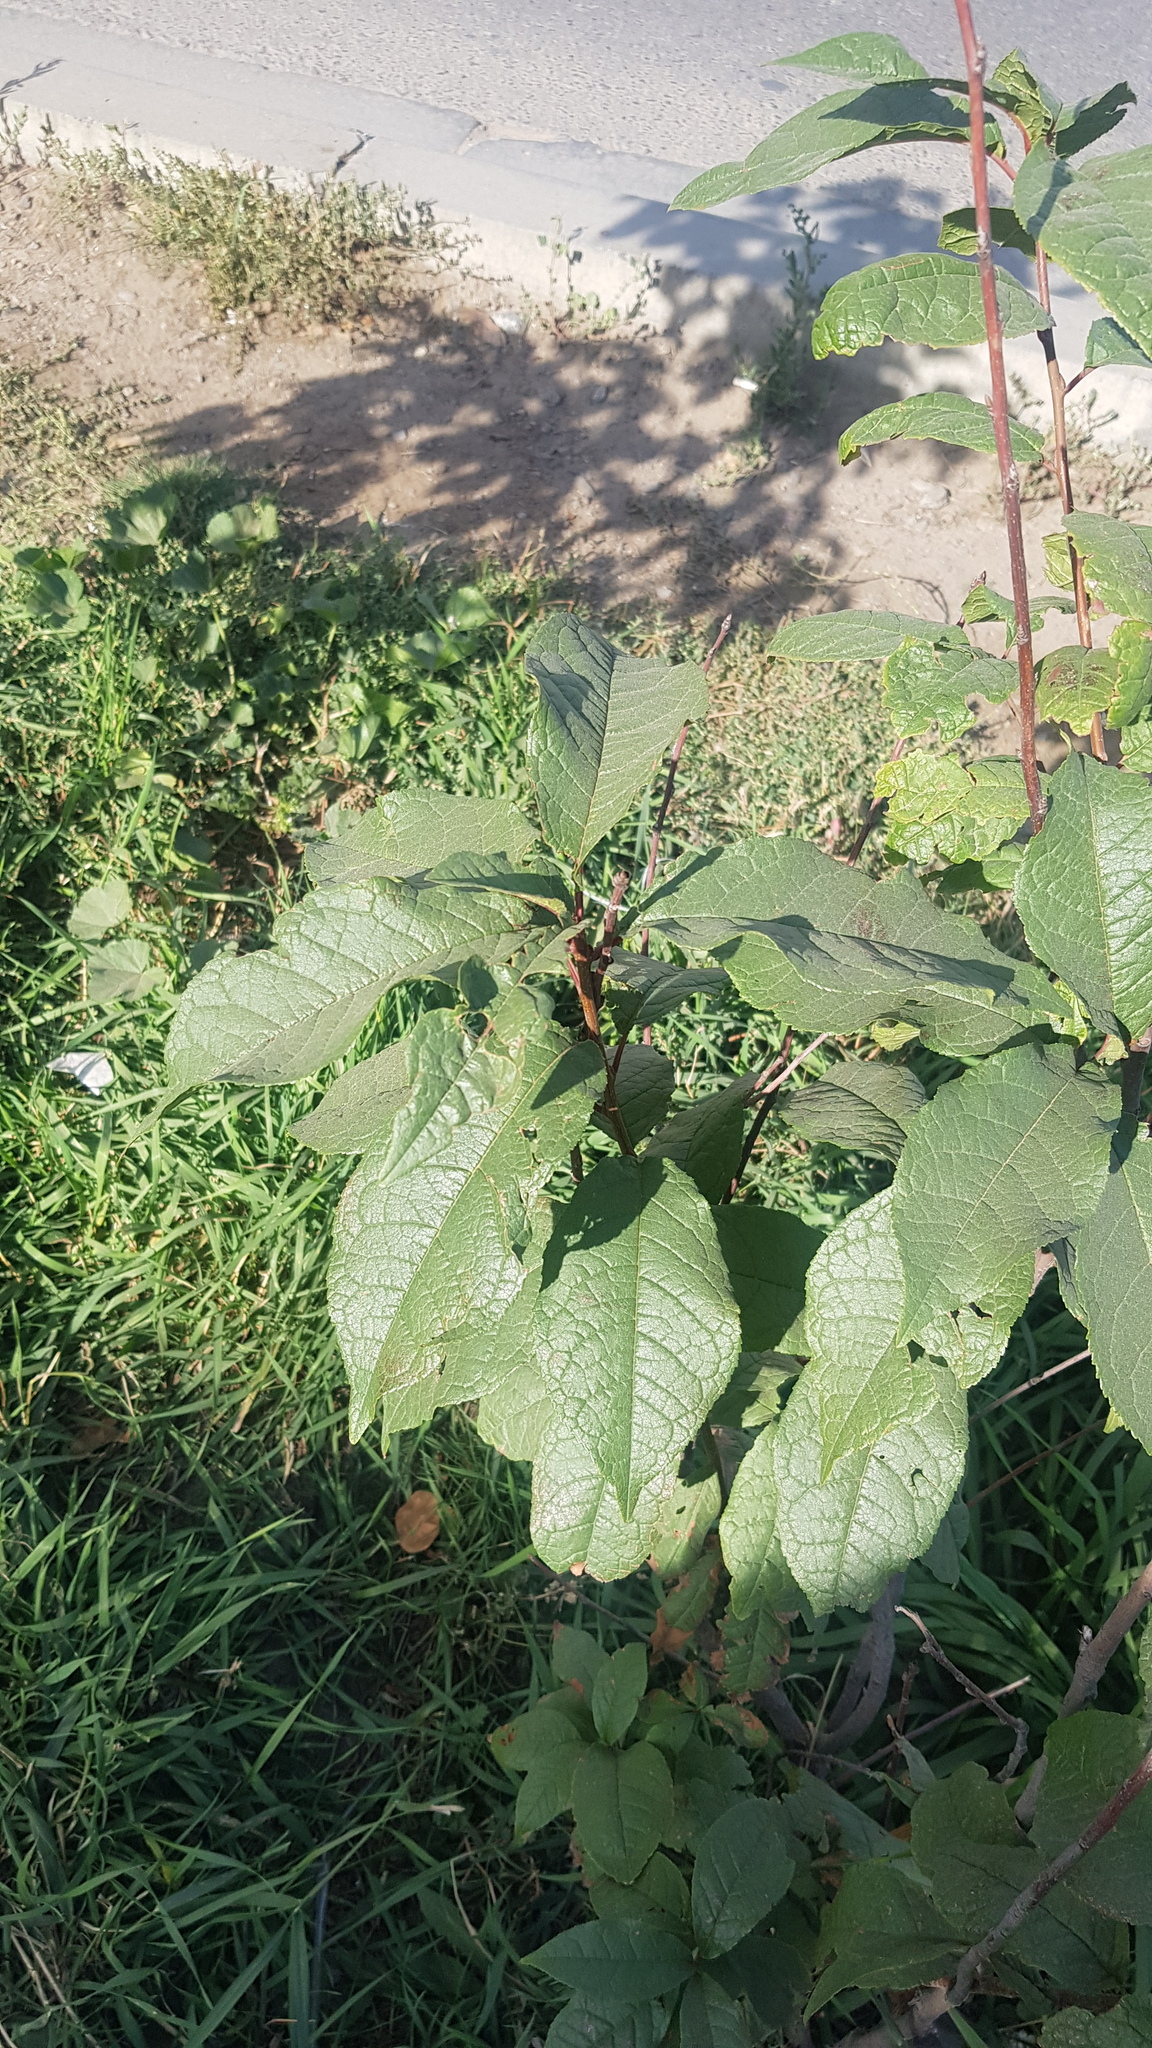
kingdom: Plantae
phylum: Tracheophyta
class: Magnoliopsida
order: Rosales
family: Rosaceae
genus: Prunus
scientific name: Prunus padus
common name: Bird cherry
